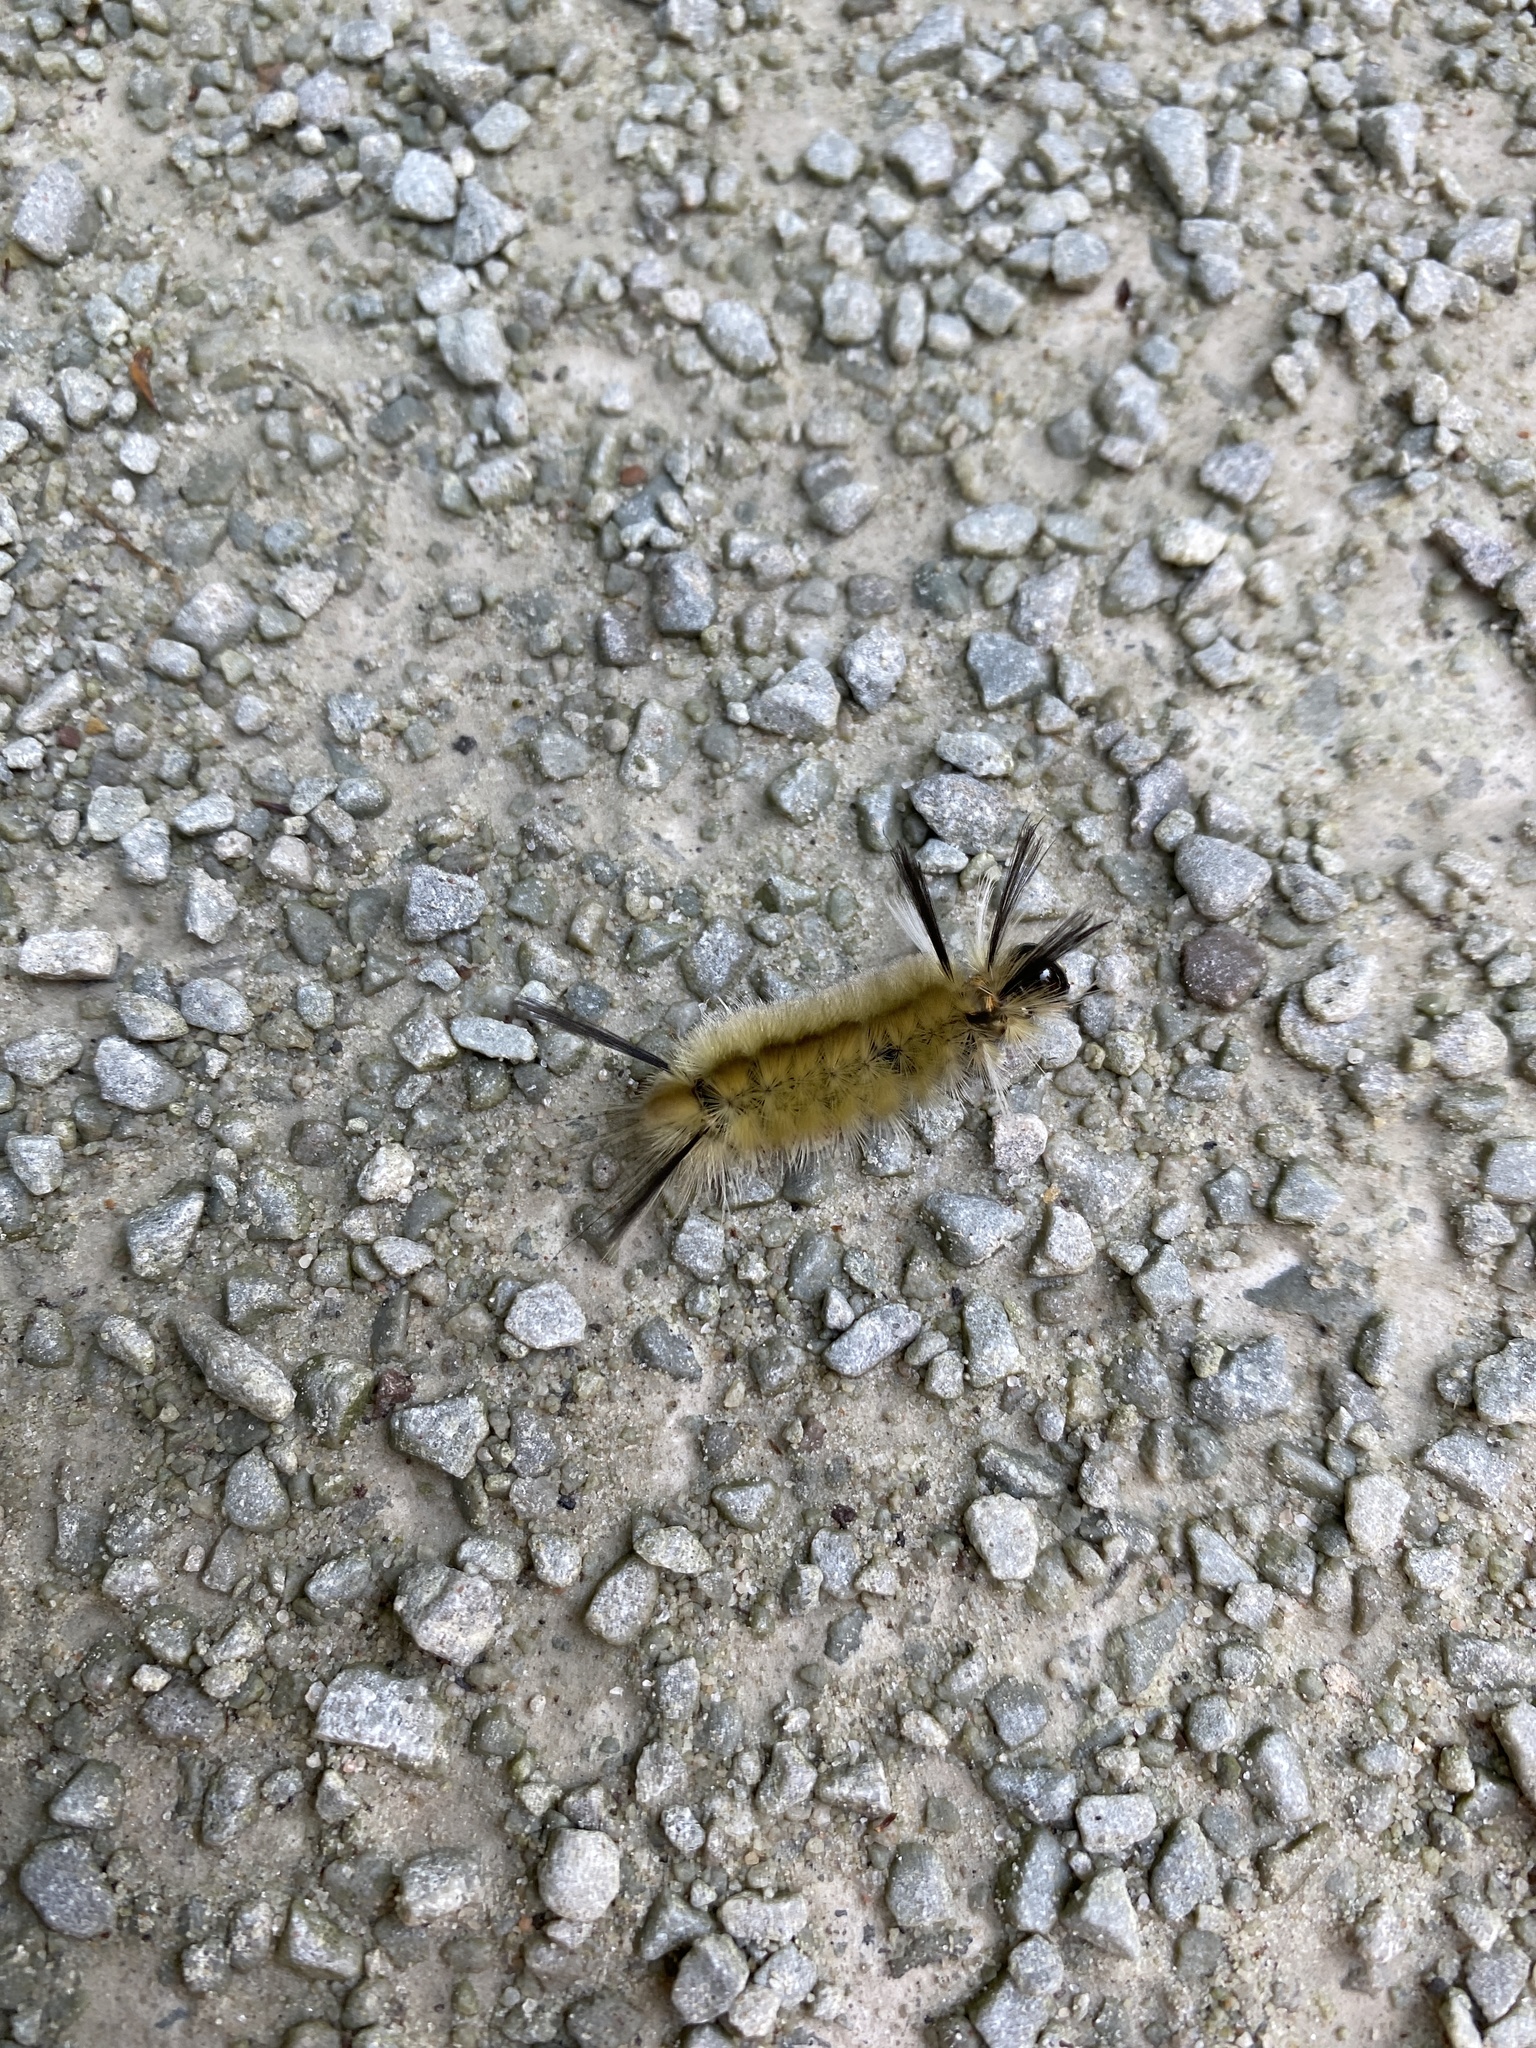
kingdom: Animalia
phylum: Arthropoda
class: Insecta
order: Lepidoptera
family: Erebidae
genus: Halysidota
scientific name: Halysidota tessellaris
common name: Banded tussock moth
